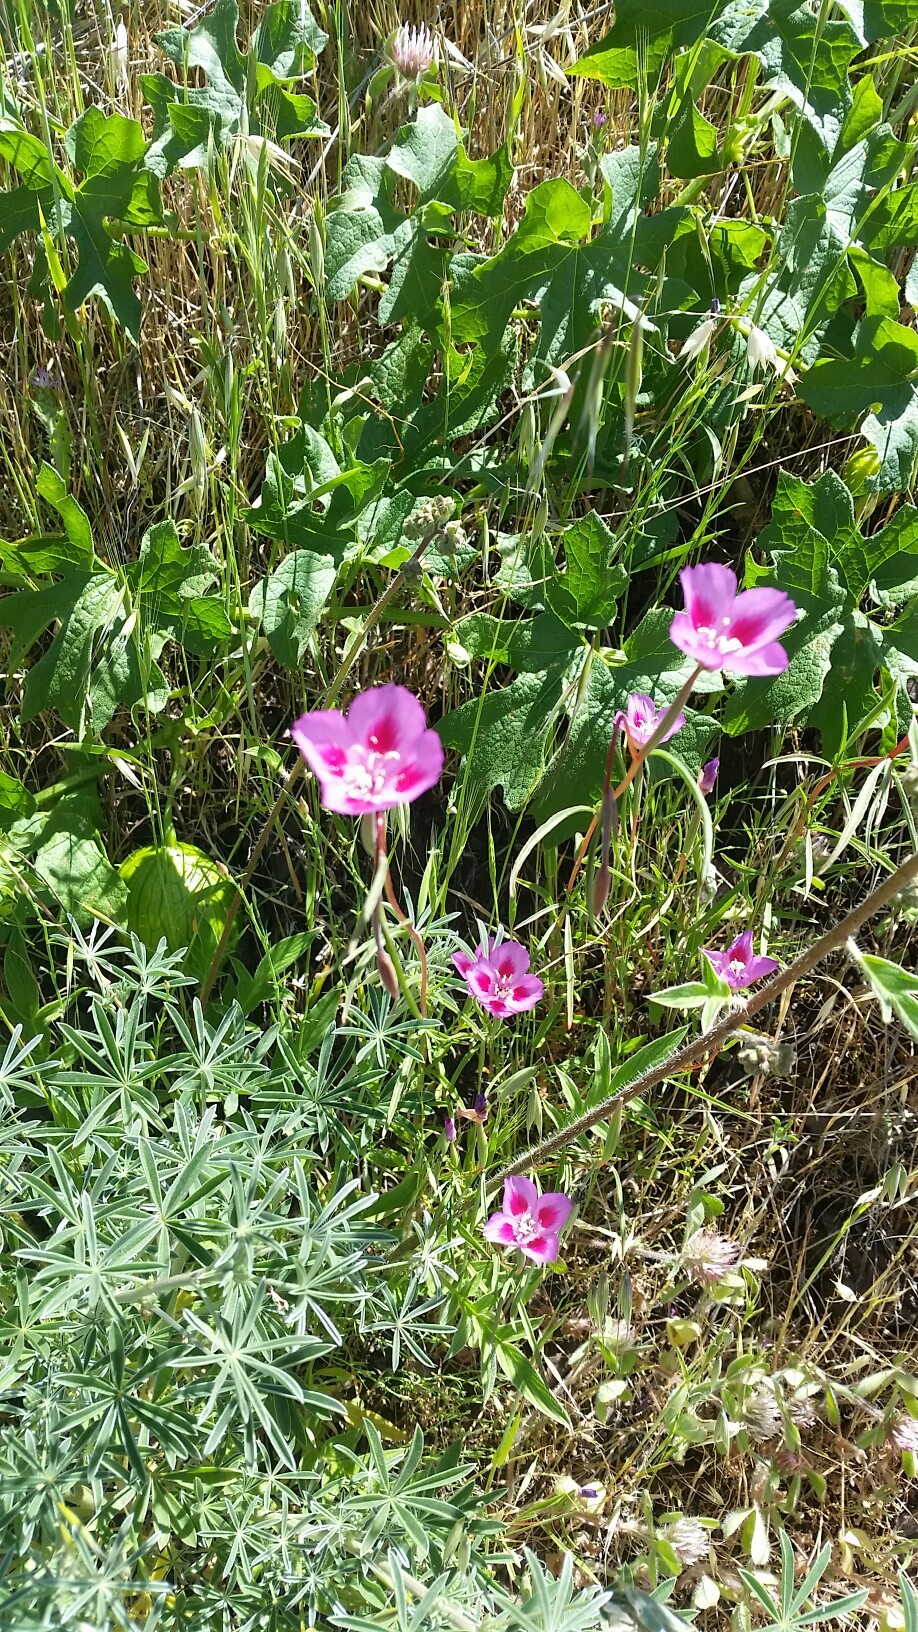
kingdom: Plantae
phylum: Tracheophyta
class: Magnoliopsida
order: Myrtales
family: Onagraceae
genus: Clarkia
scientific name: Clarkia gracilis
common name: Graceful clarkia
